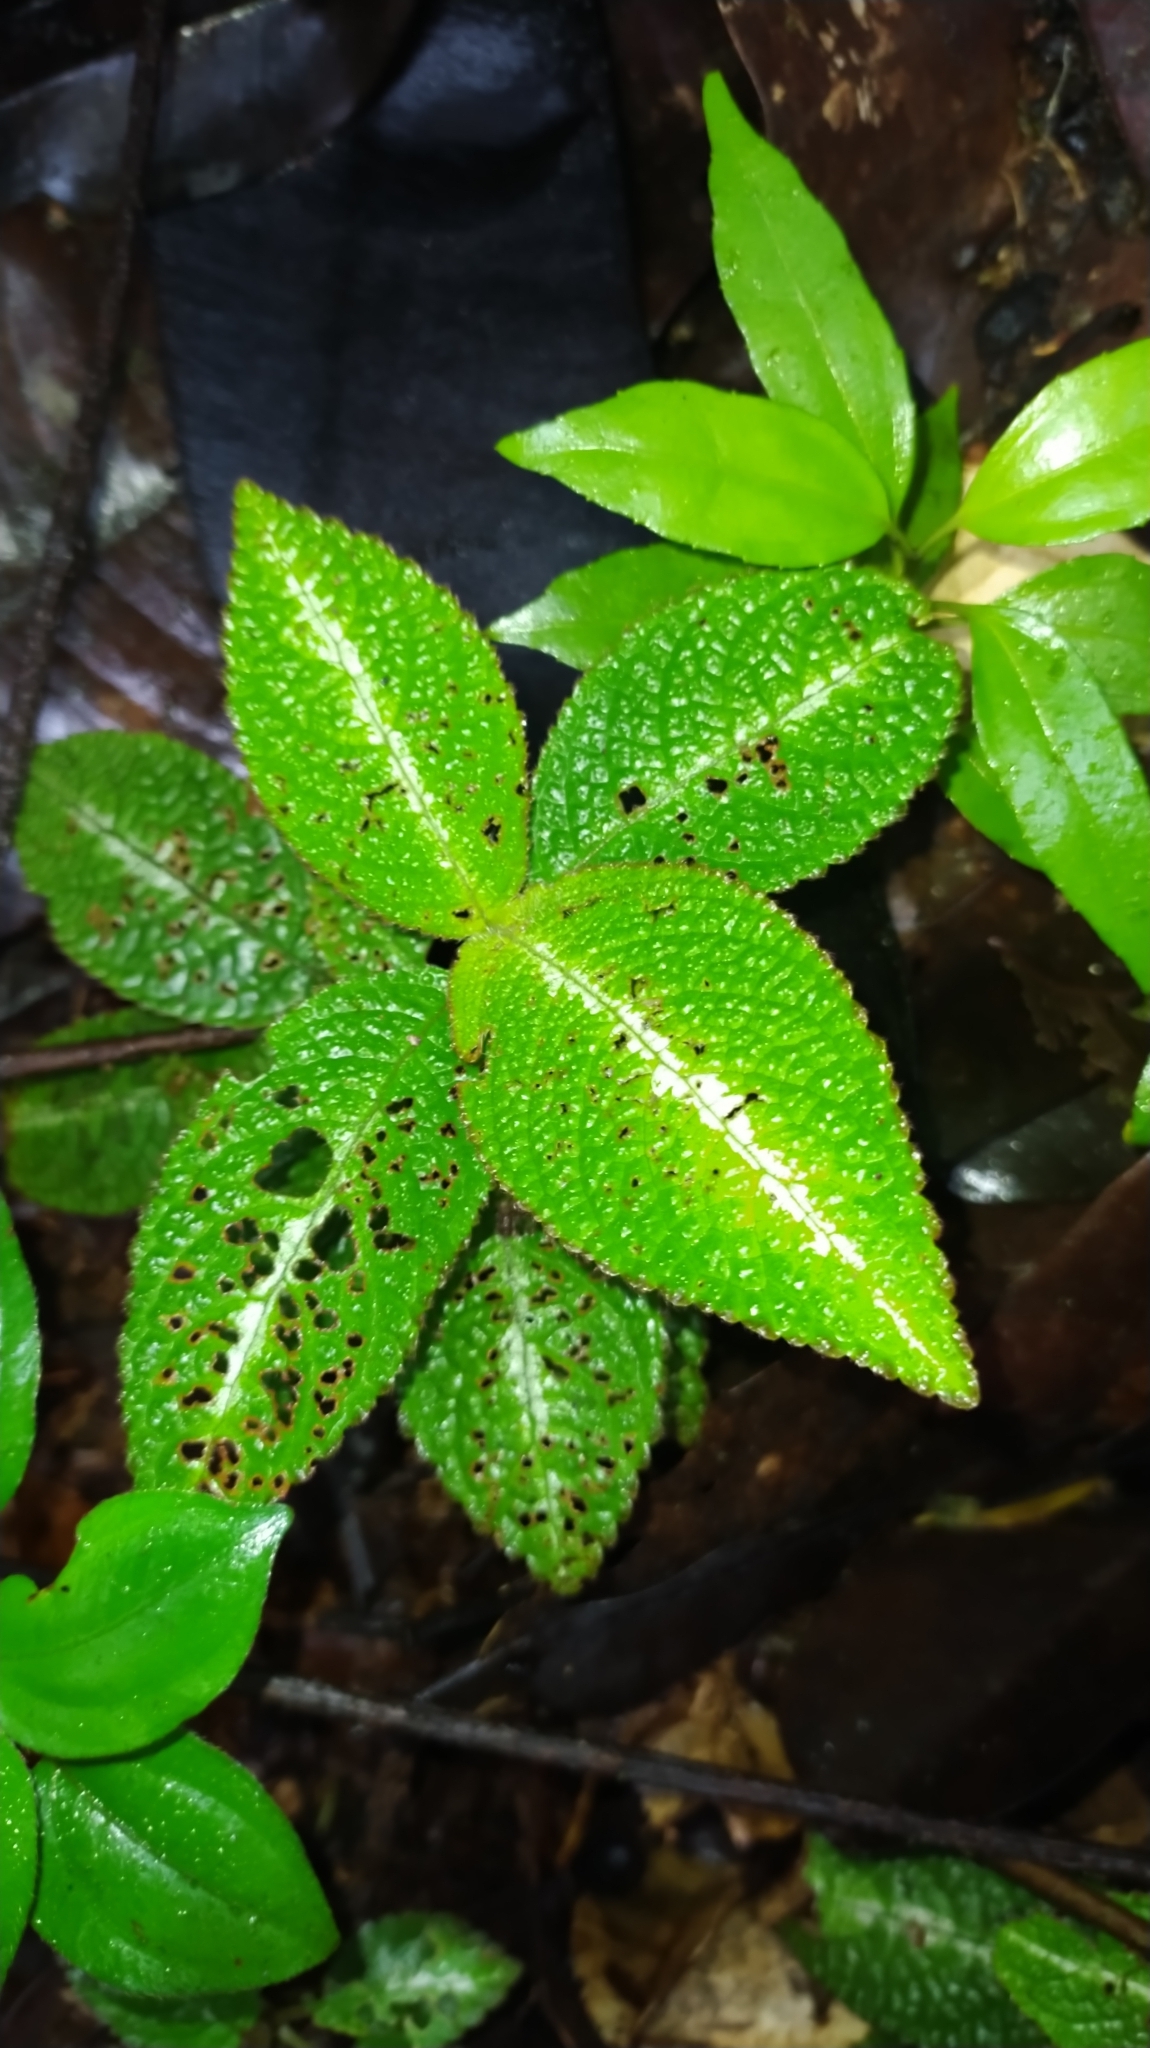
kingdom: Plantae
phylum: Tracheophyta
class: Magnoliopsida
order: Lamiales
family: Gesneriaceae
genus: Centrosolenia
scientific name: Centrosolenia picta
